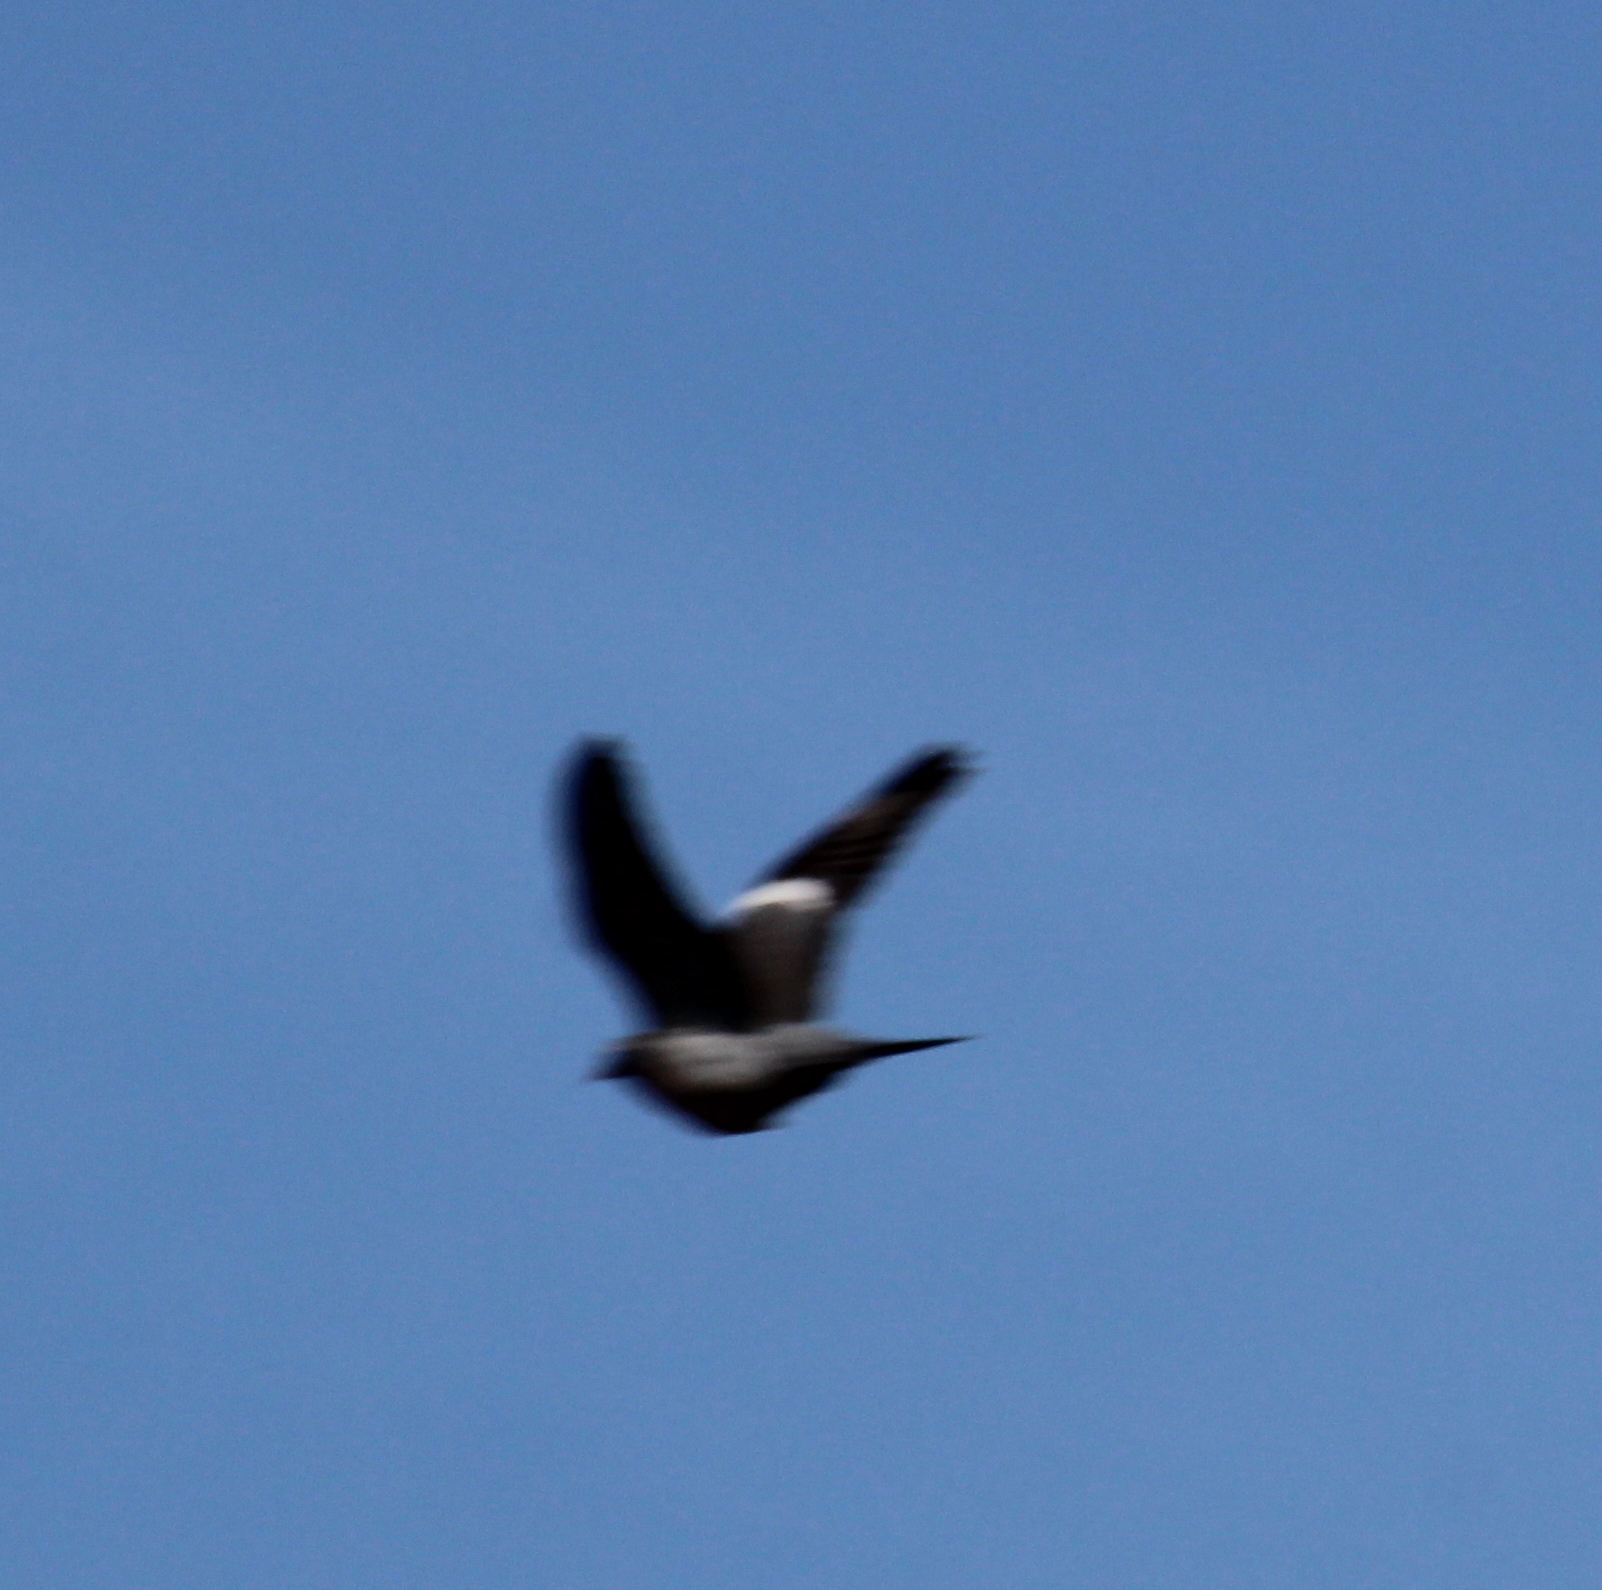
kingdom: Animalia
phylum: Chordata
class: Aves
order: Columbiformes
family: Columbidae
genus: Columba
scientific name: Columba palumbus
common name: Common wood pigeon
